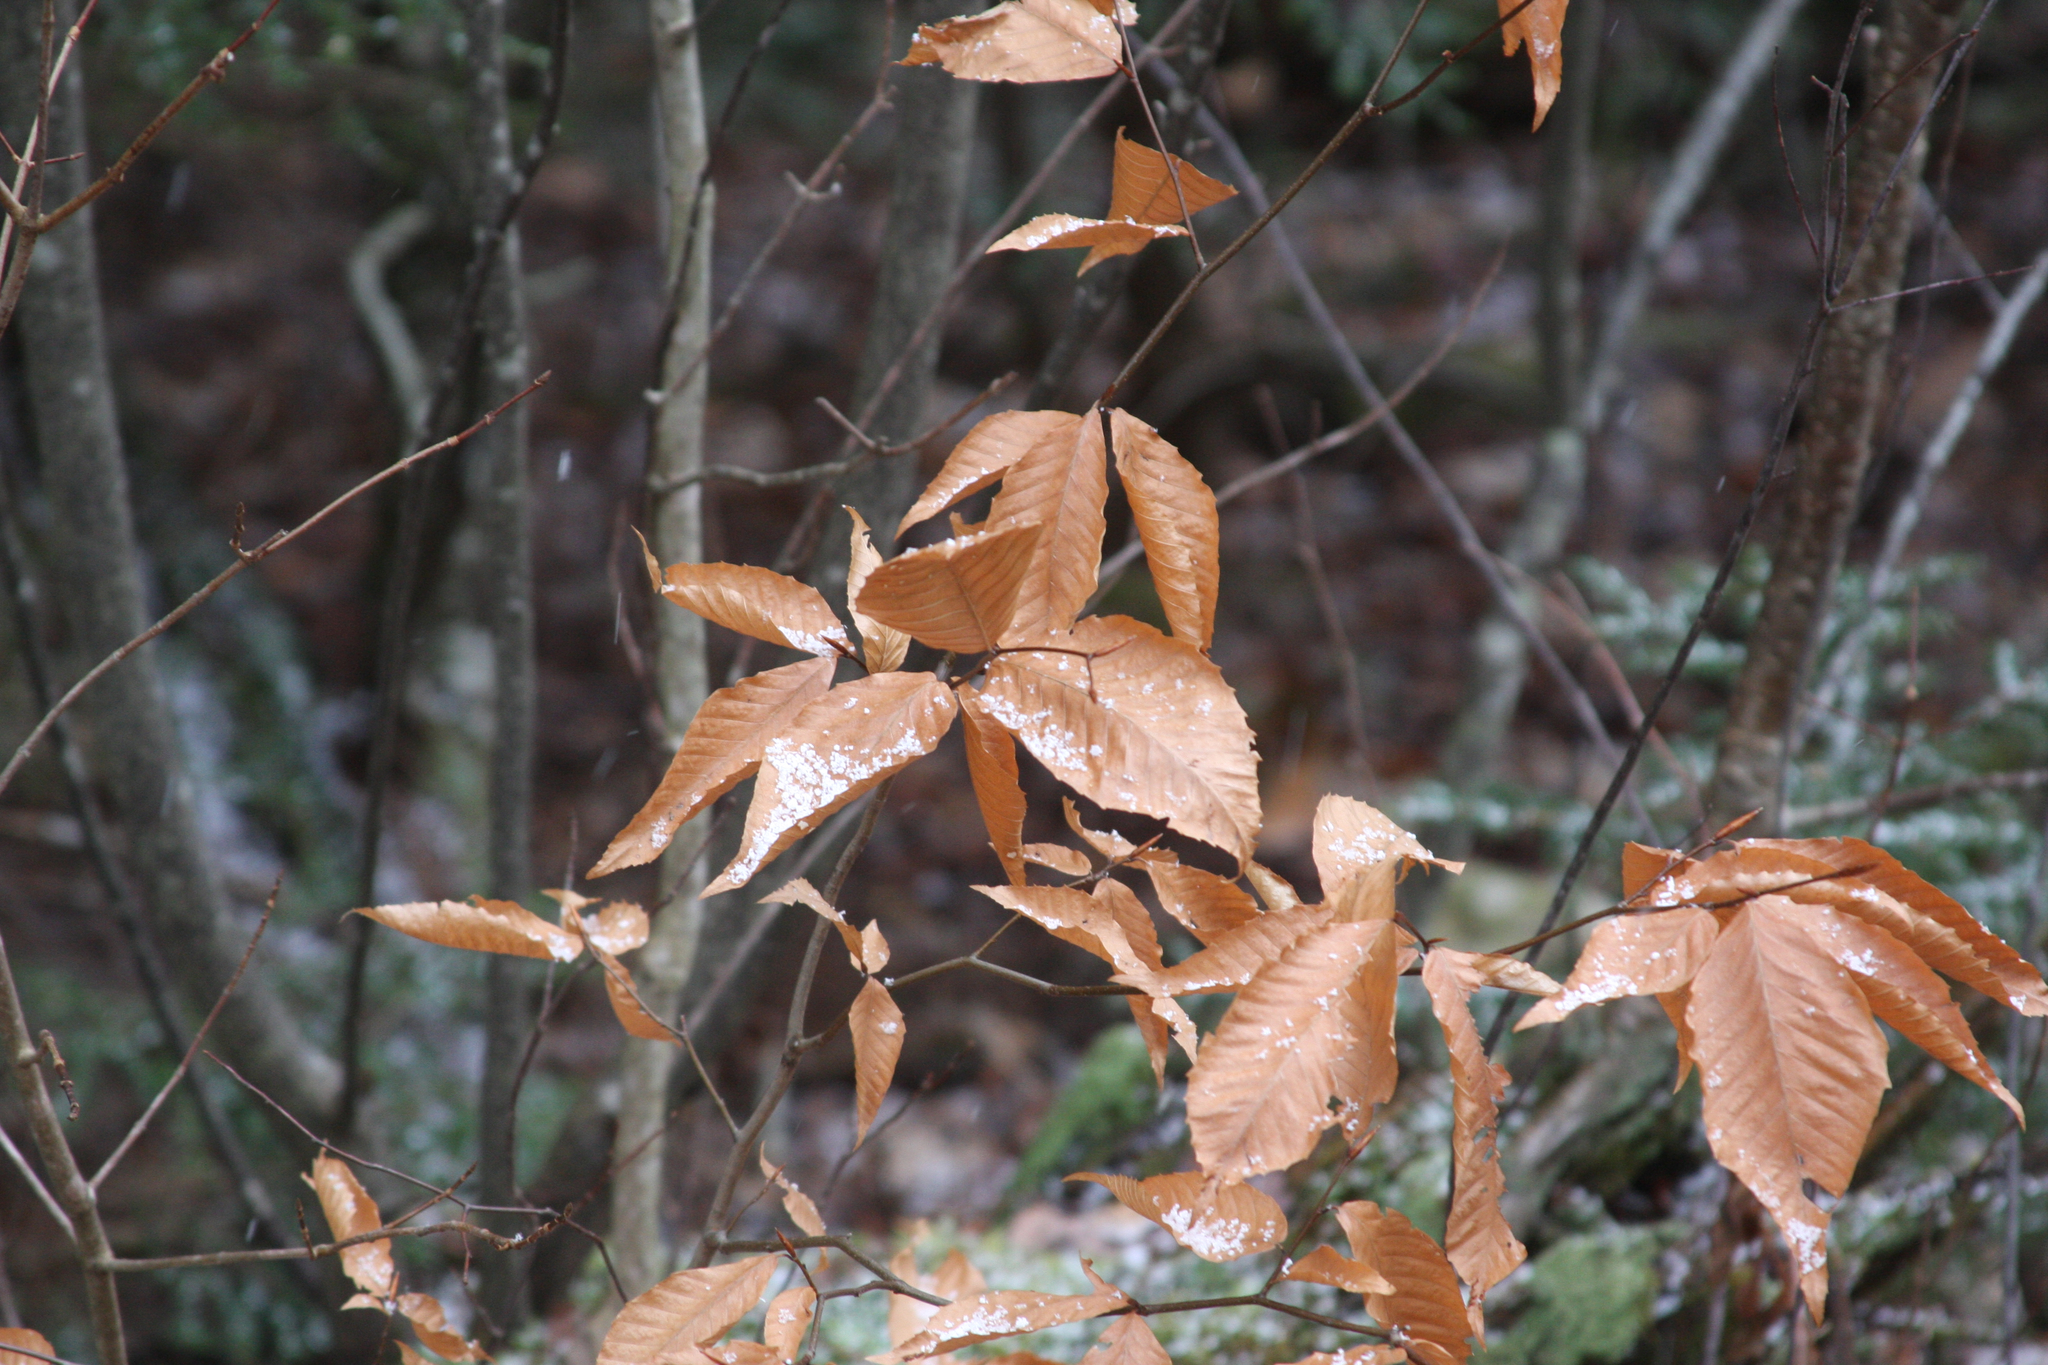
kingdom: Plantae
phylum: Tracheophyta
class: Magnoliopsida
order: Fagales
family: Fagaceae
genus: Fagus
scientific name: Fagus grandifolia
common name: American beech
